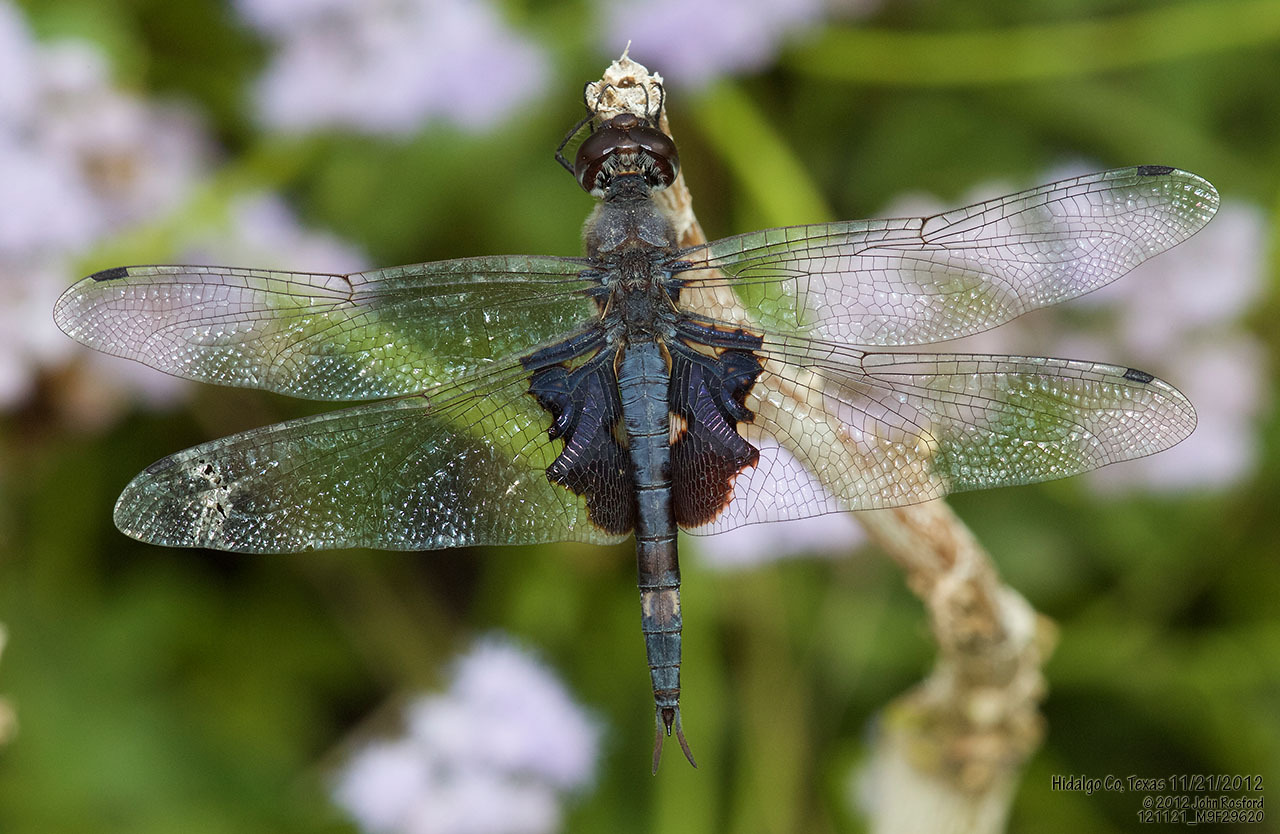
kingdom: Animalia
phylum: Arthropoda
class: Insecta
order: Odonata
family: Libellulidae
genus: Tramea
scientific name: Tramea lacerata
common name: Black saddlebags
